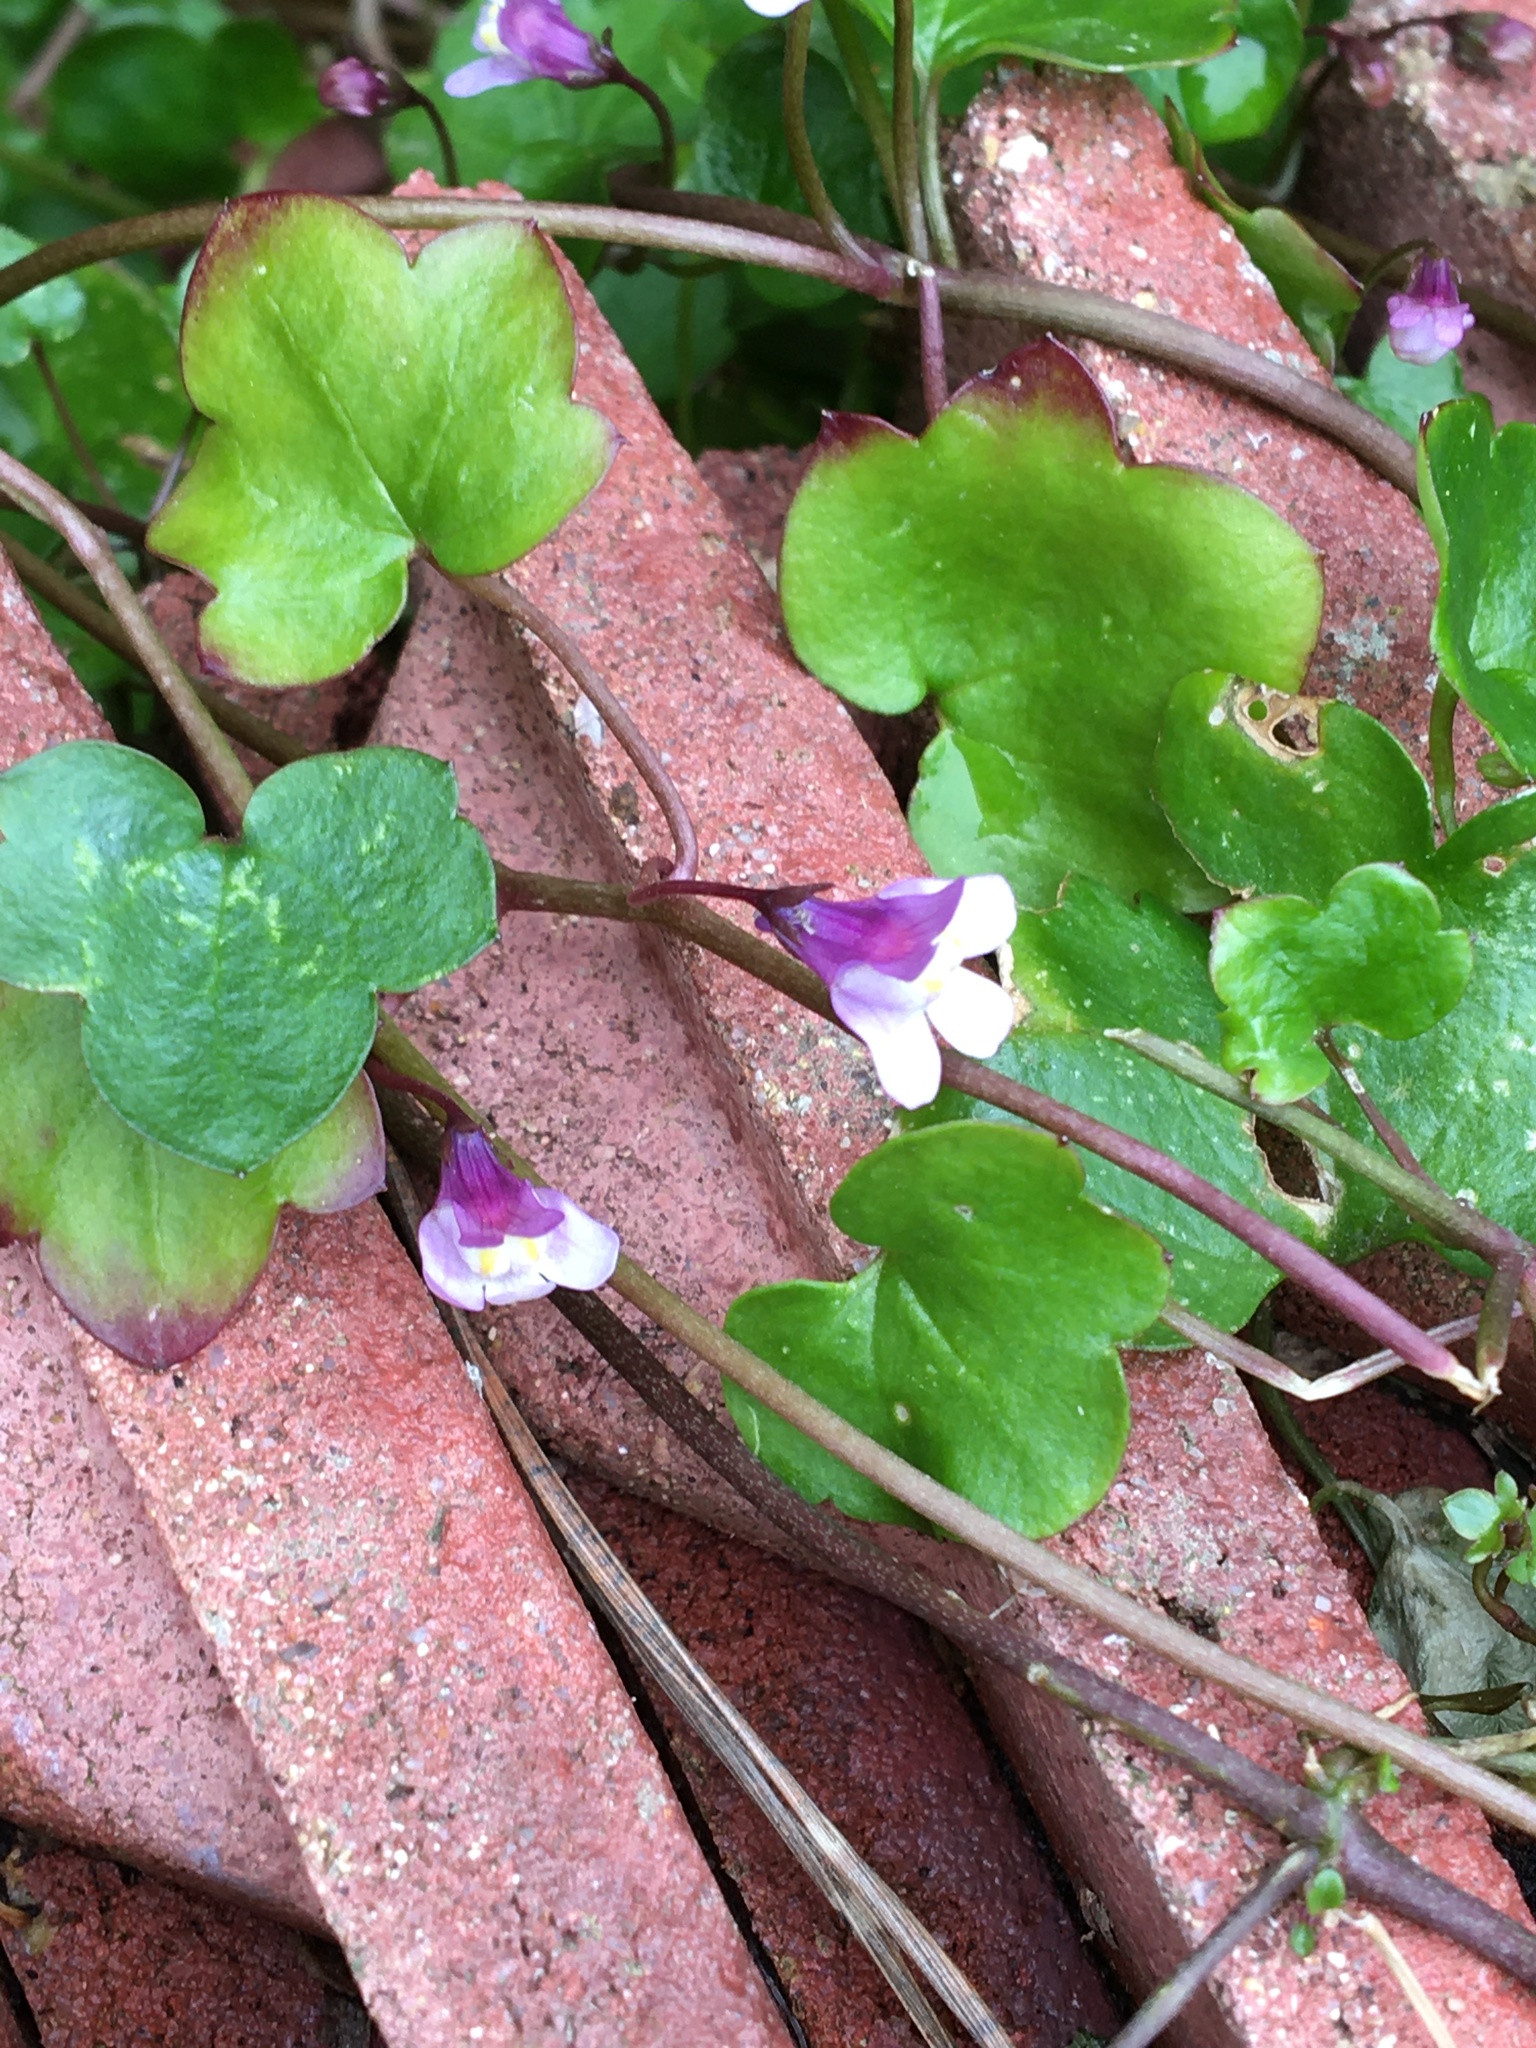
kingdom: Plantae
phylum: Tracheophyta
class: Magnoliopsida
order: Lamiales
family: Plantaginaceae
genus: Cymbalaria
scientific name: Cymbalaria muralis
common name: Ivy-leaved toadflax
